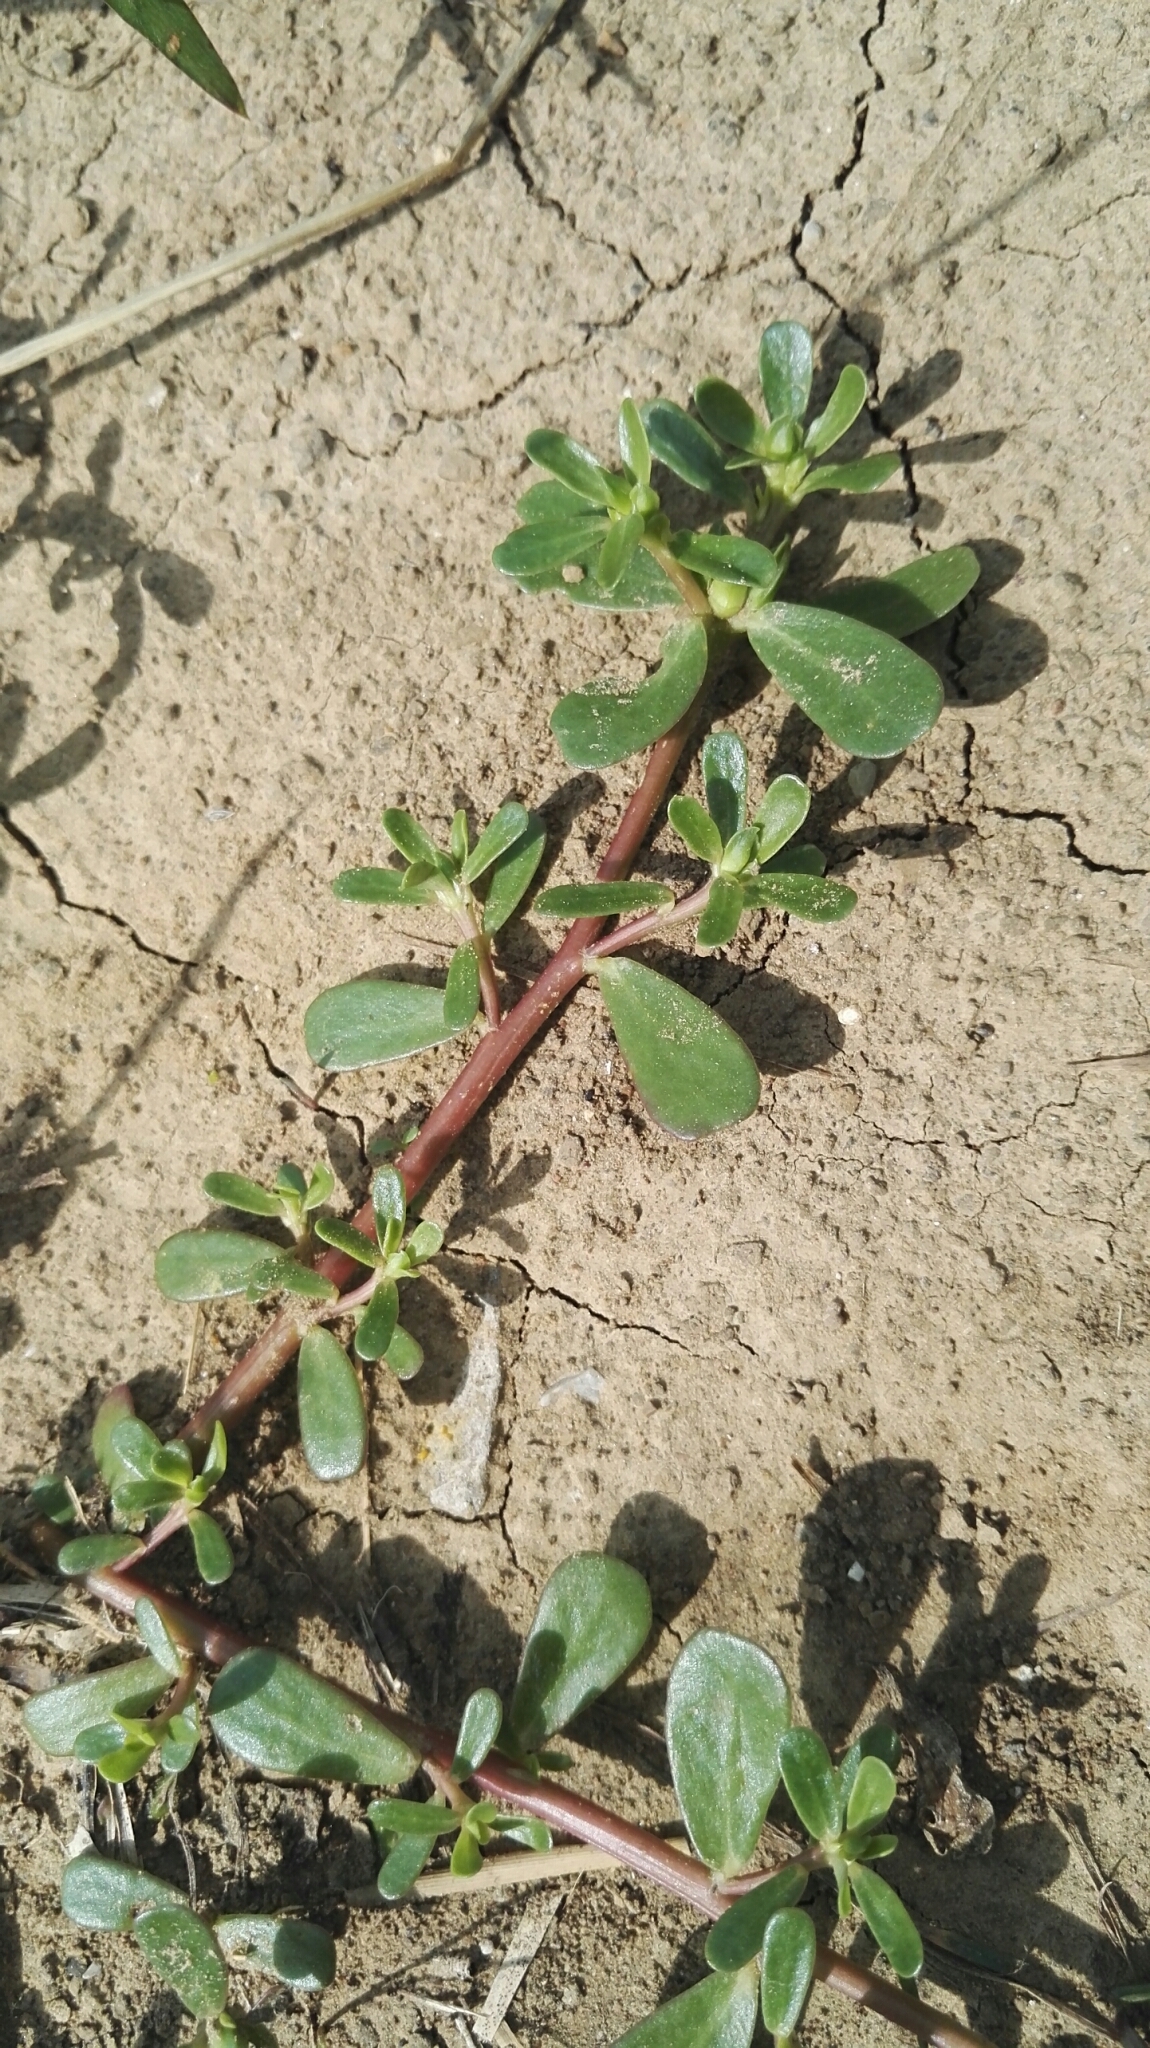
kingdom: Plantae
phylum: Tracheophyta
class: Magnoliopsida
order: Caryophyllales
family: Portulacaceae
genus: Portulaca
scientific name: Portulaca oleracea
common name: Common purslane
